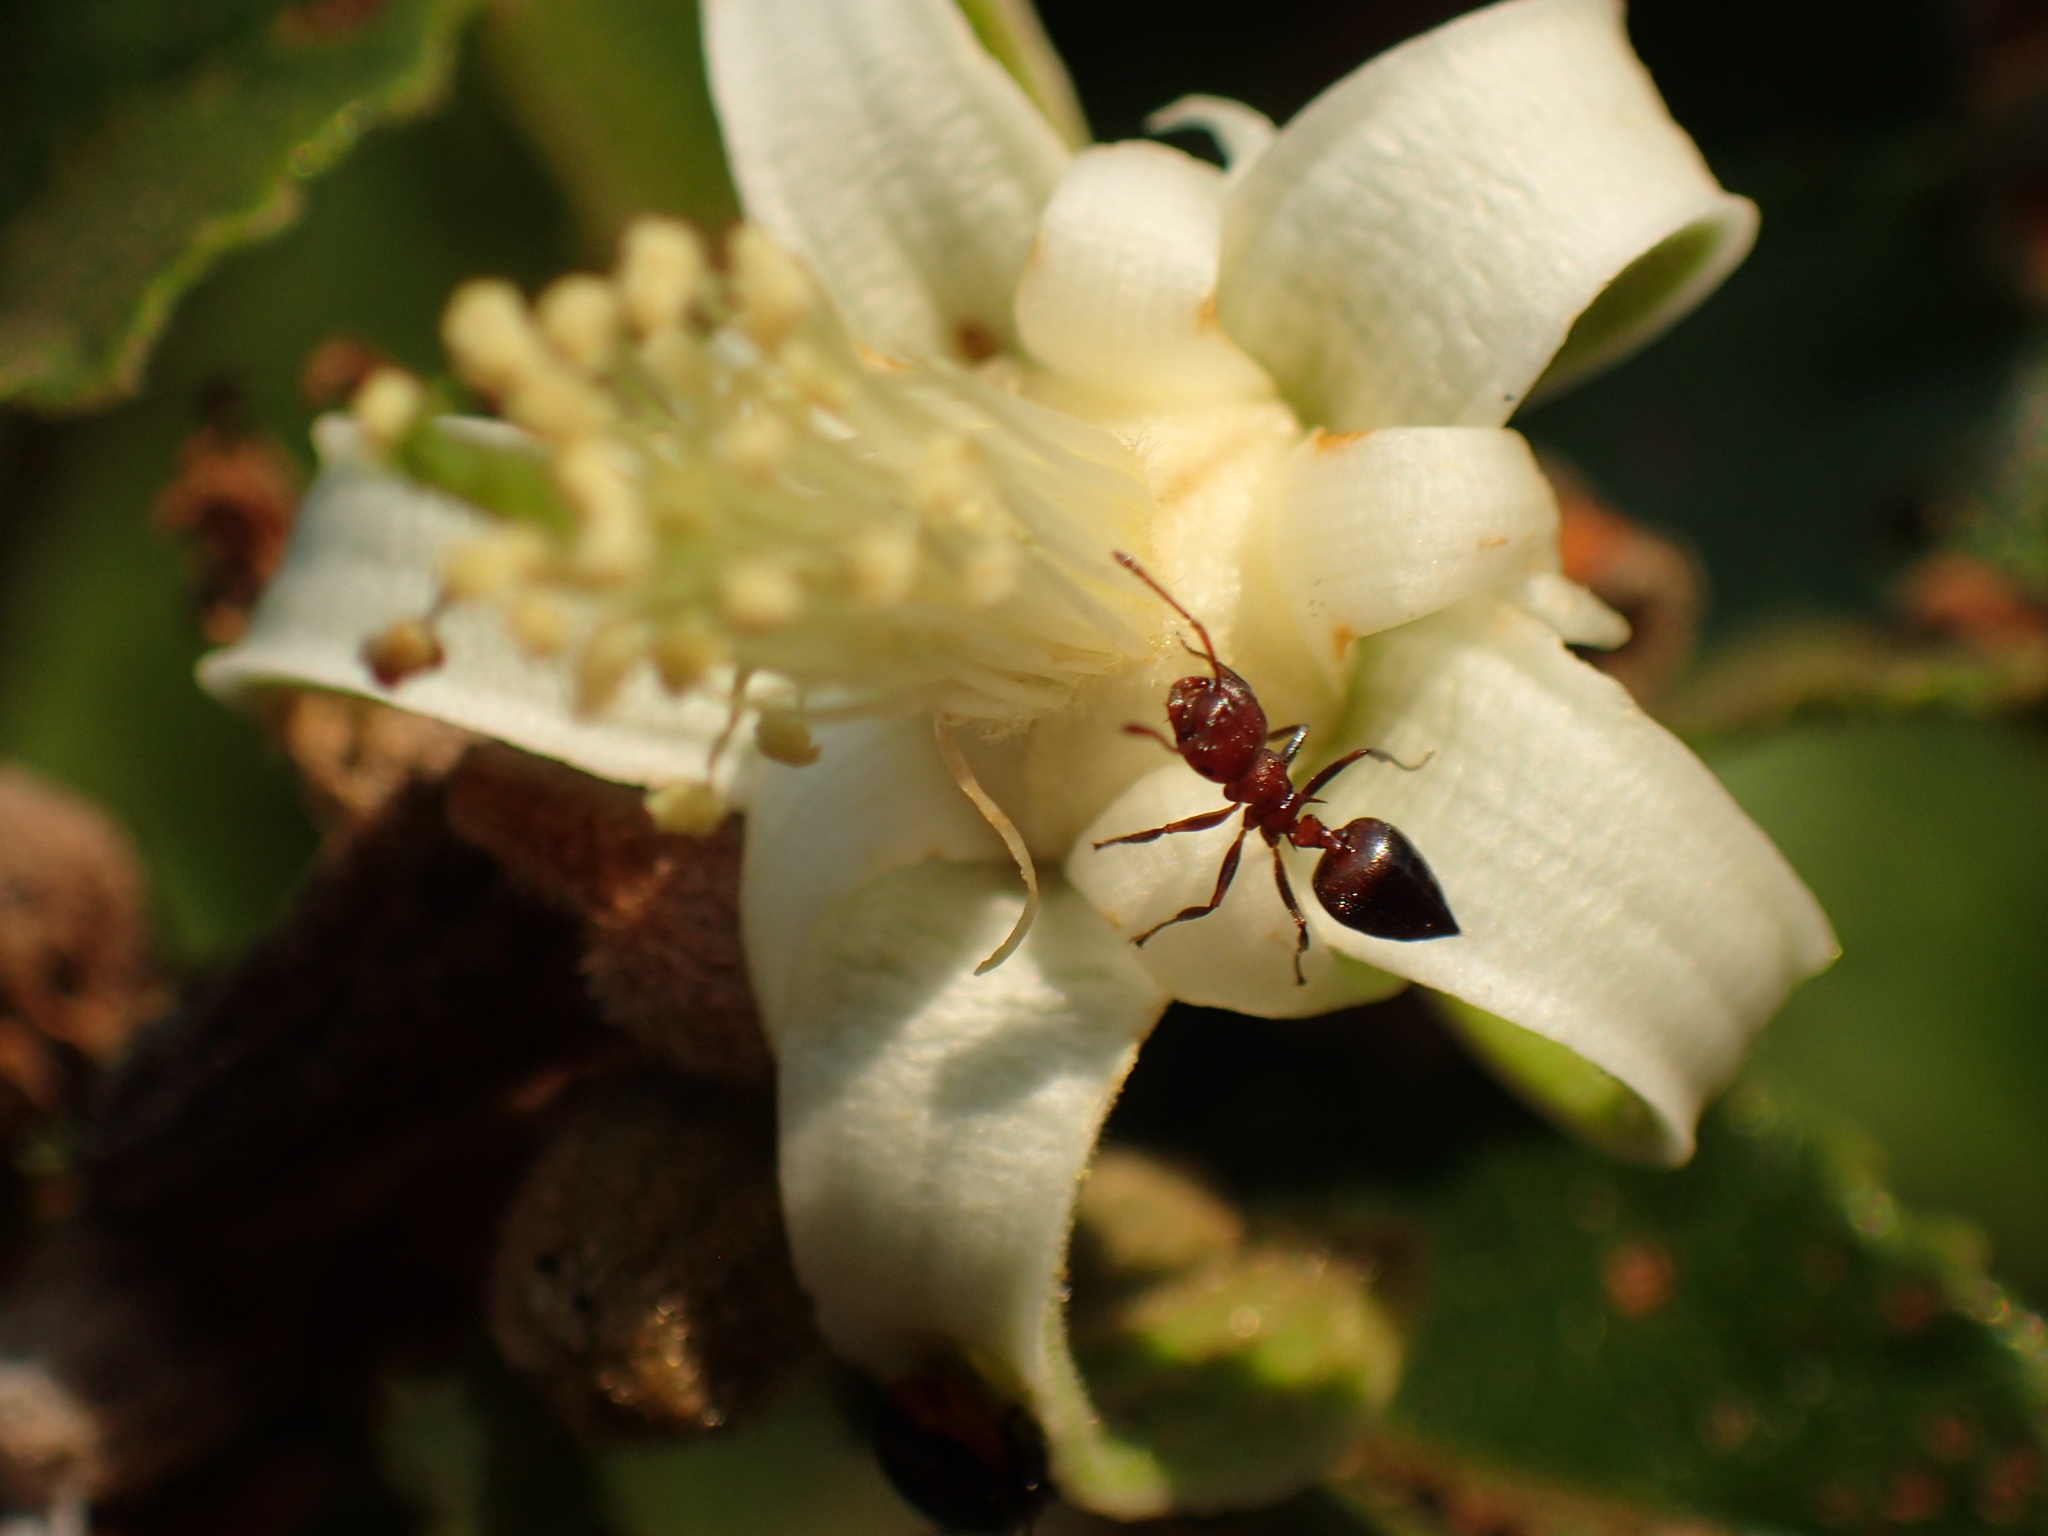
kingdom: Animalia
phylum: Arthropoda
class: Insecta
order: Hymenoptera
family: Formicidae
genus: Crematogaster
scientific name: Crematogaster castanea
